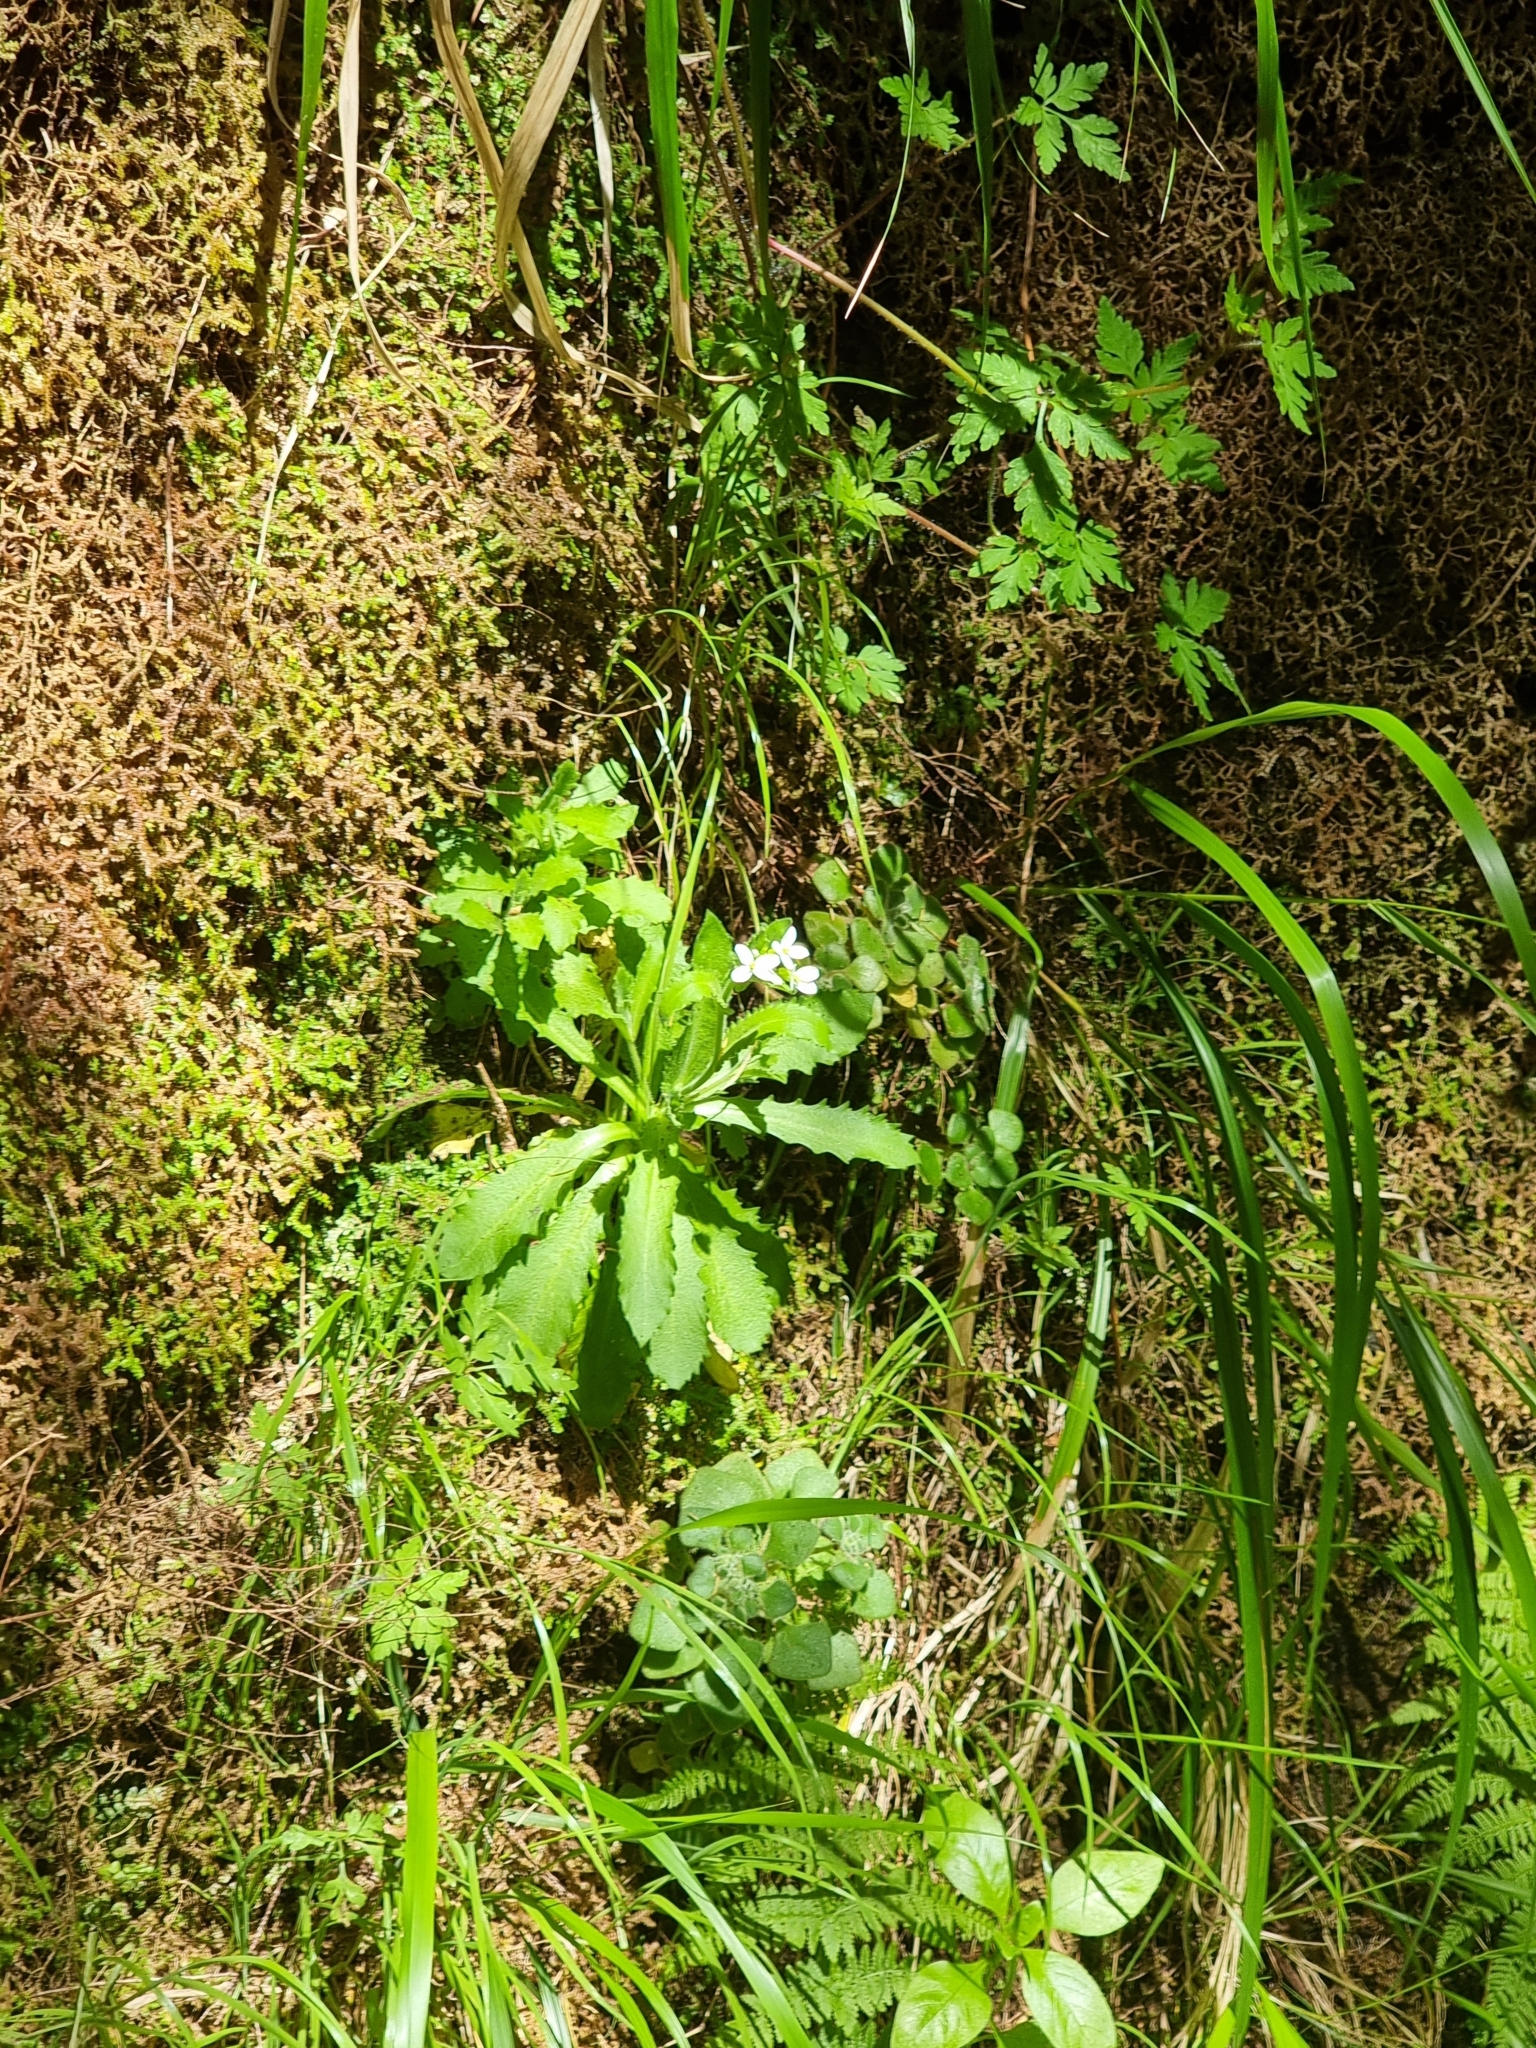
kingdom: Plantae
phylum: Tracheophyta
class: Magnoliopsida
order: Brassicales
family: Brassicaceae
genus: Arabis
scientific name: Arabis alpina
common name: Alpine rock-cress
